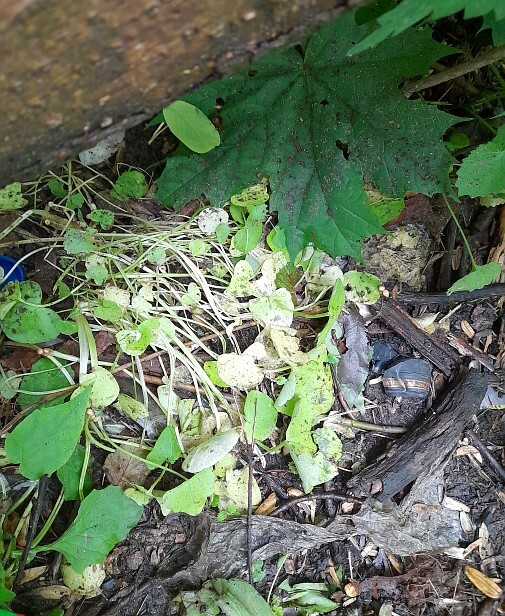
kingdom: Plantae
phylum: Tracheophyta
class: Magnoliopsida
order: Ranunculales
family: Ranunculaceae
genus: Ficaria
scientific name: Ficaria verna
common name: Lesser celandine
